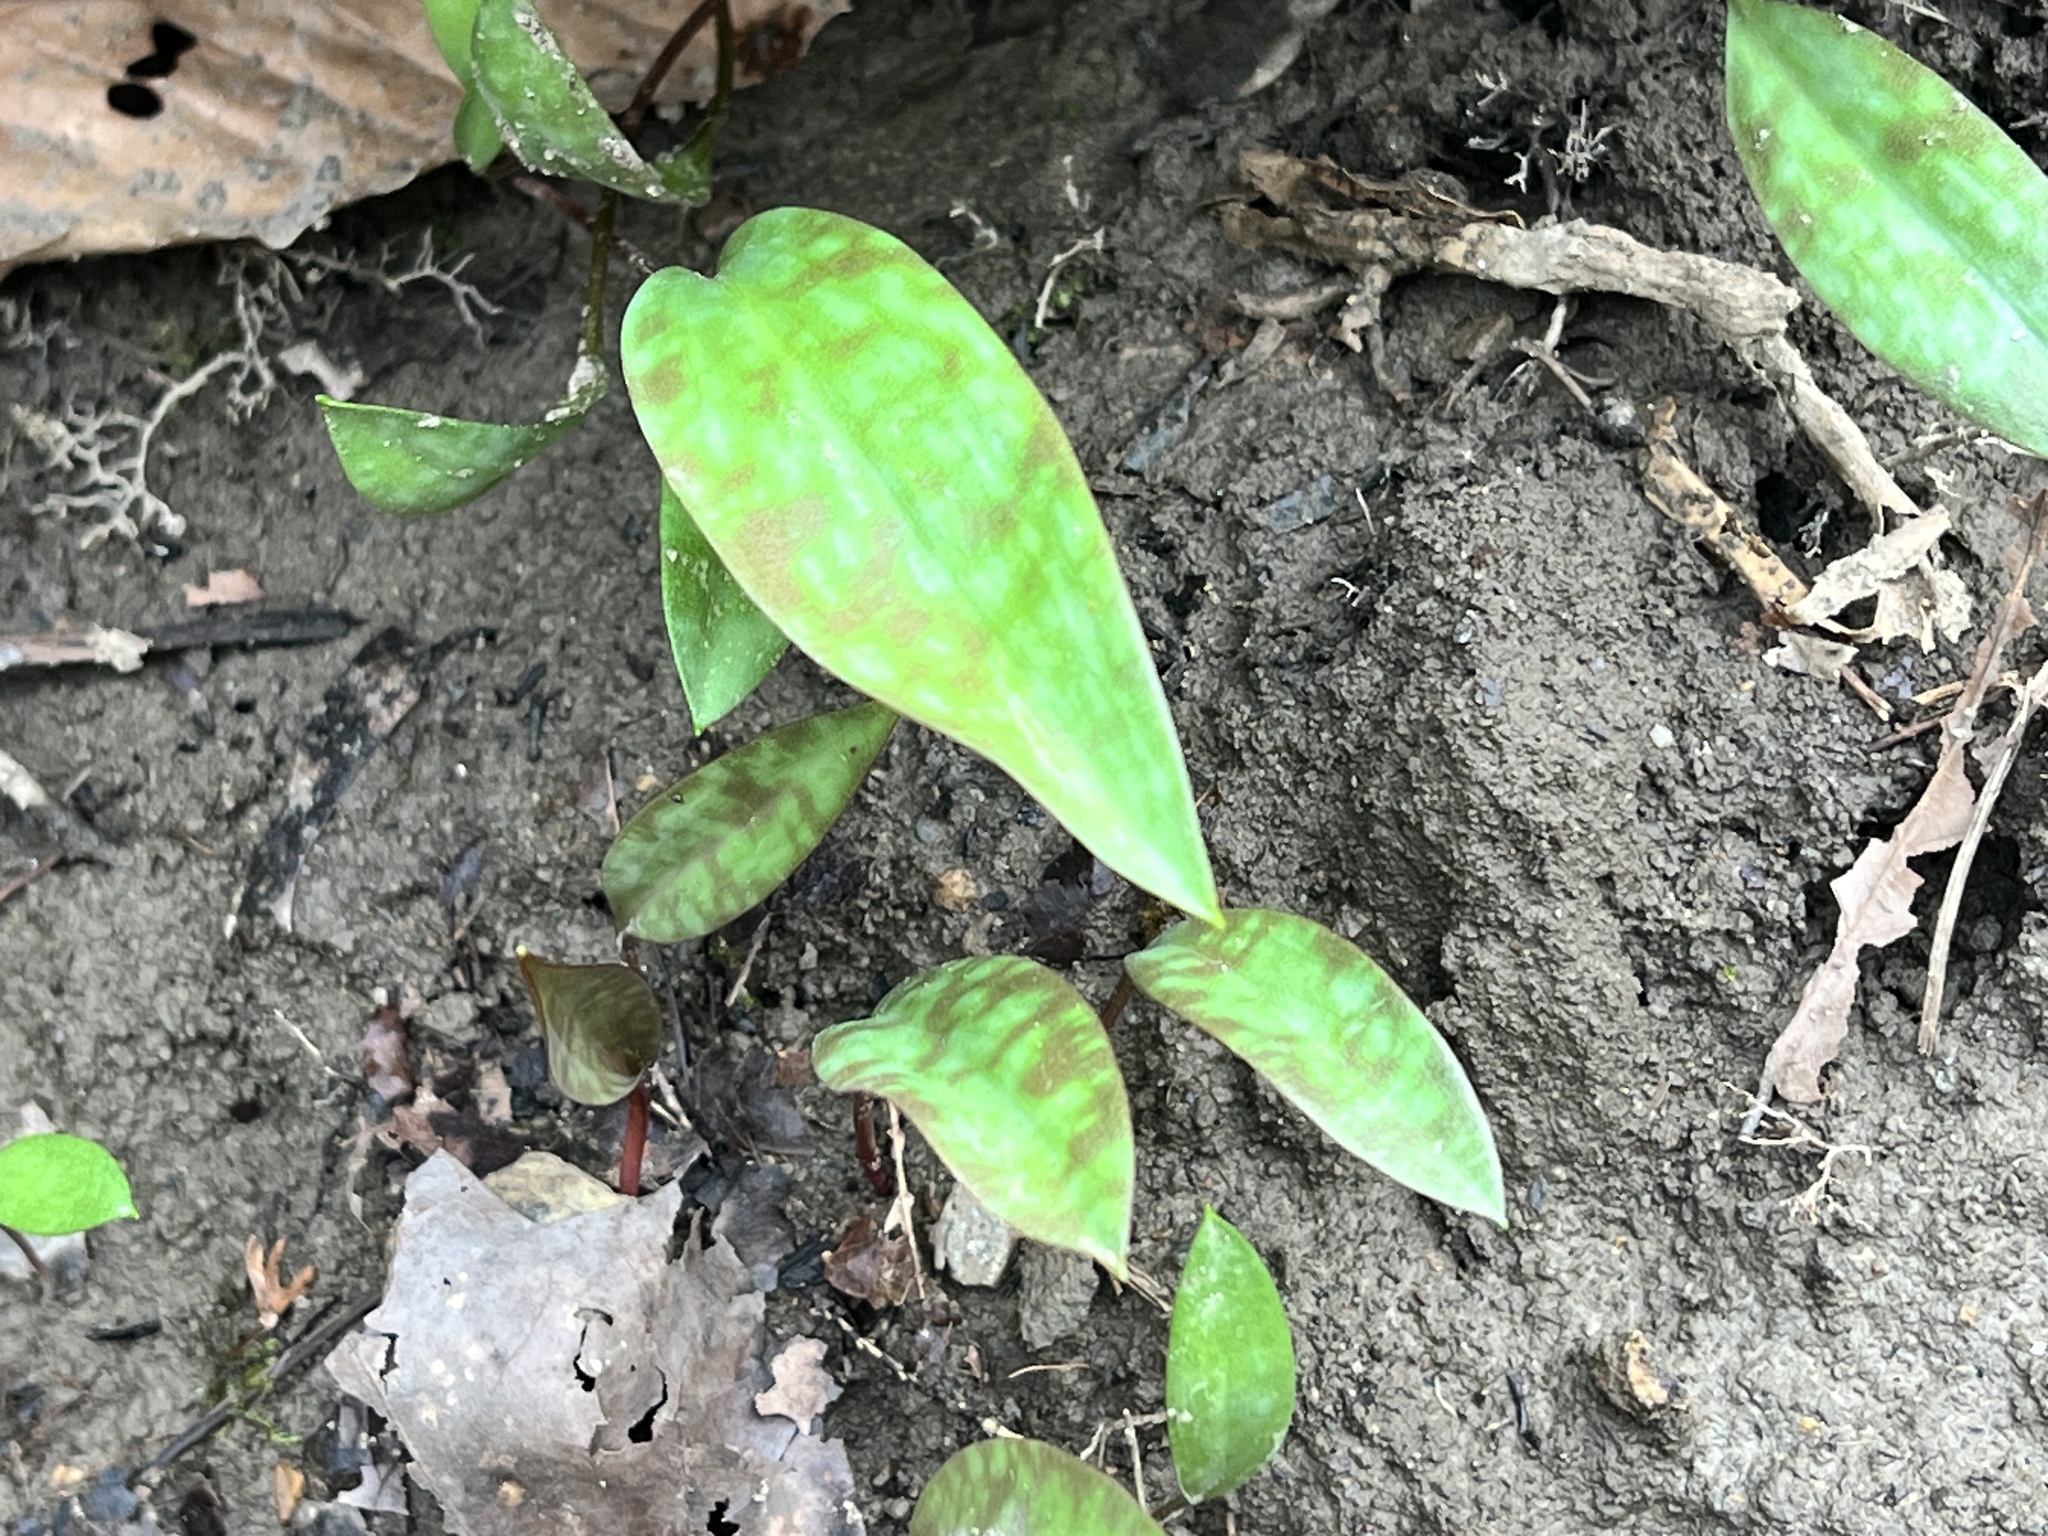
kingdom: Plantae
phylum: Tracheophyta
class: Liliopsida
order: Liliales
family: Liliaceae
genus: Erythronium
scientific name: Erythronium americanum
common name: Yellow adder's-tongue
